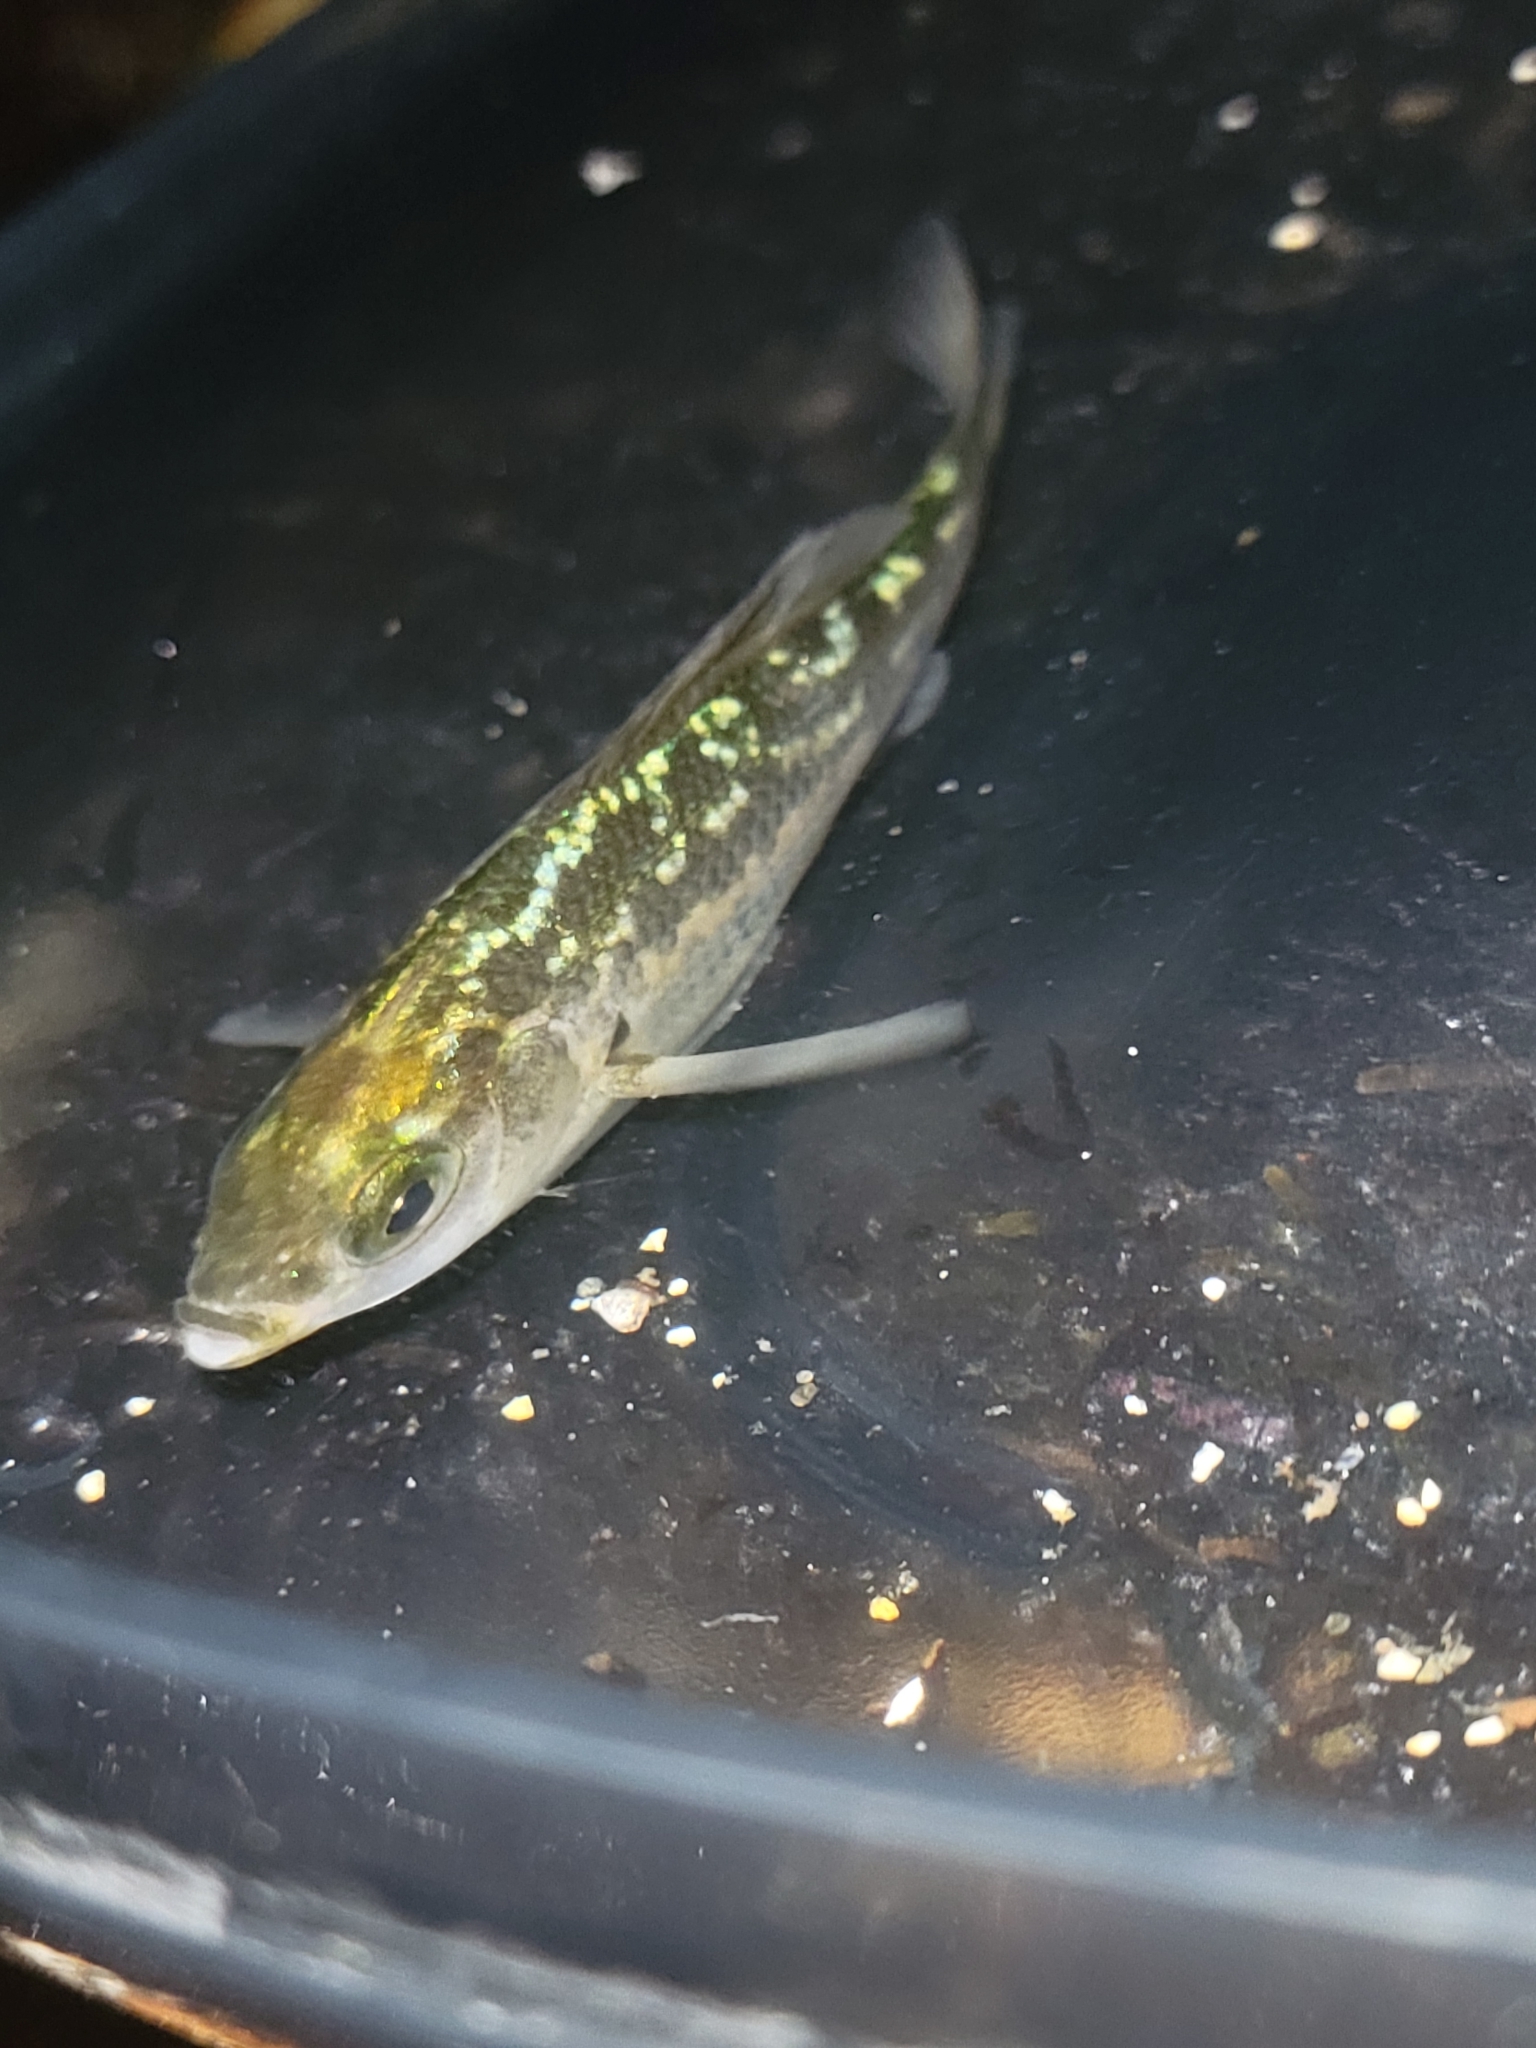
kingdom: Animalia
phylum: Chordata
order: Perciformes
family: Embiotocidae
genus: Micrometrus
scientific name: Micrometrus aurora
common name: Reef perch
